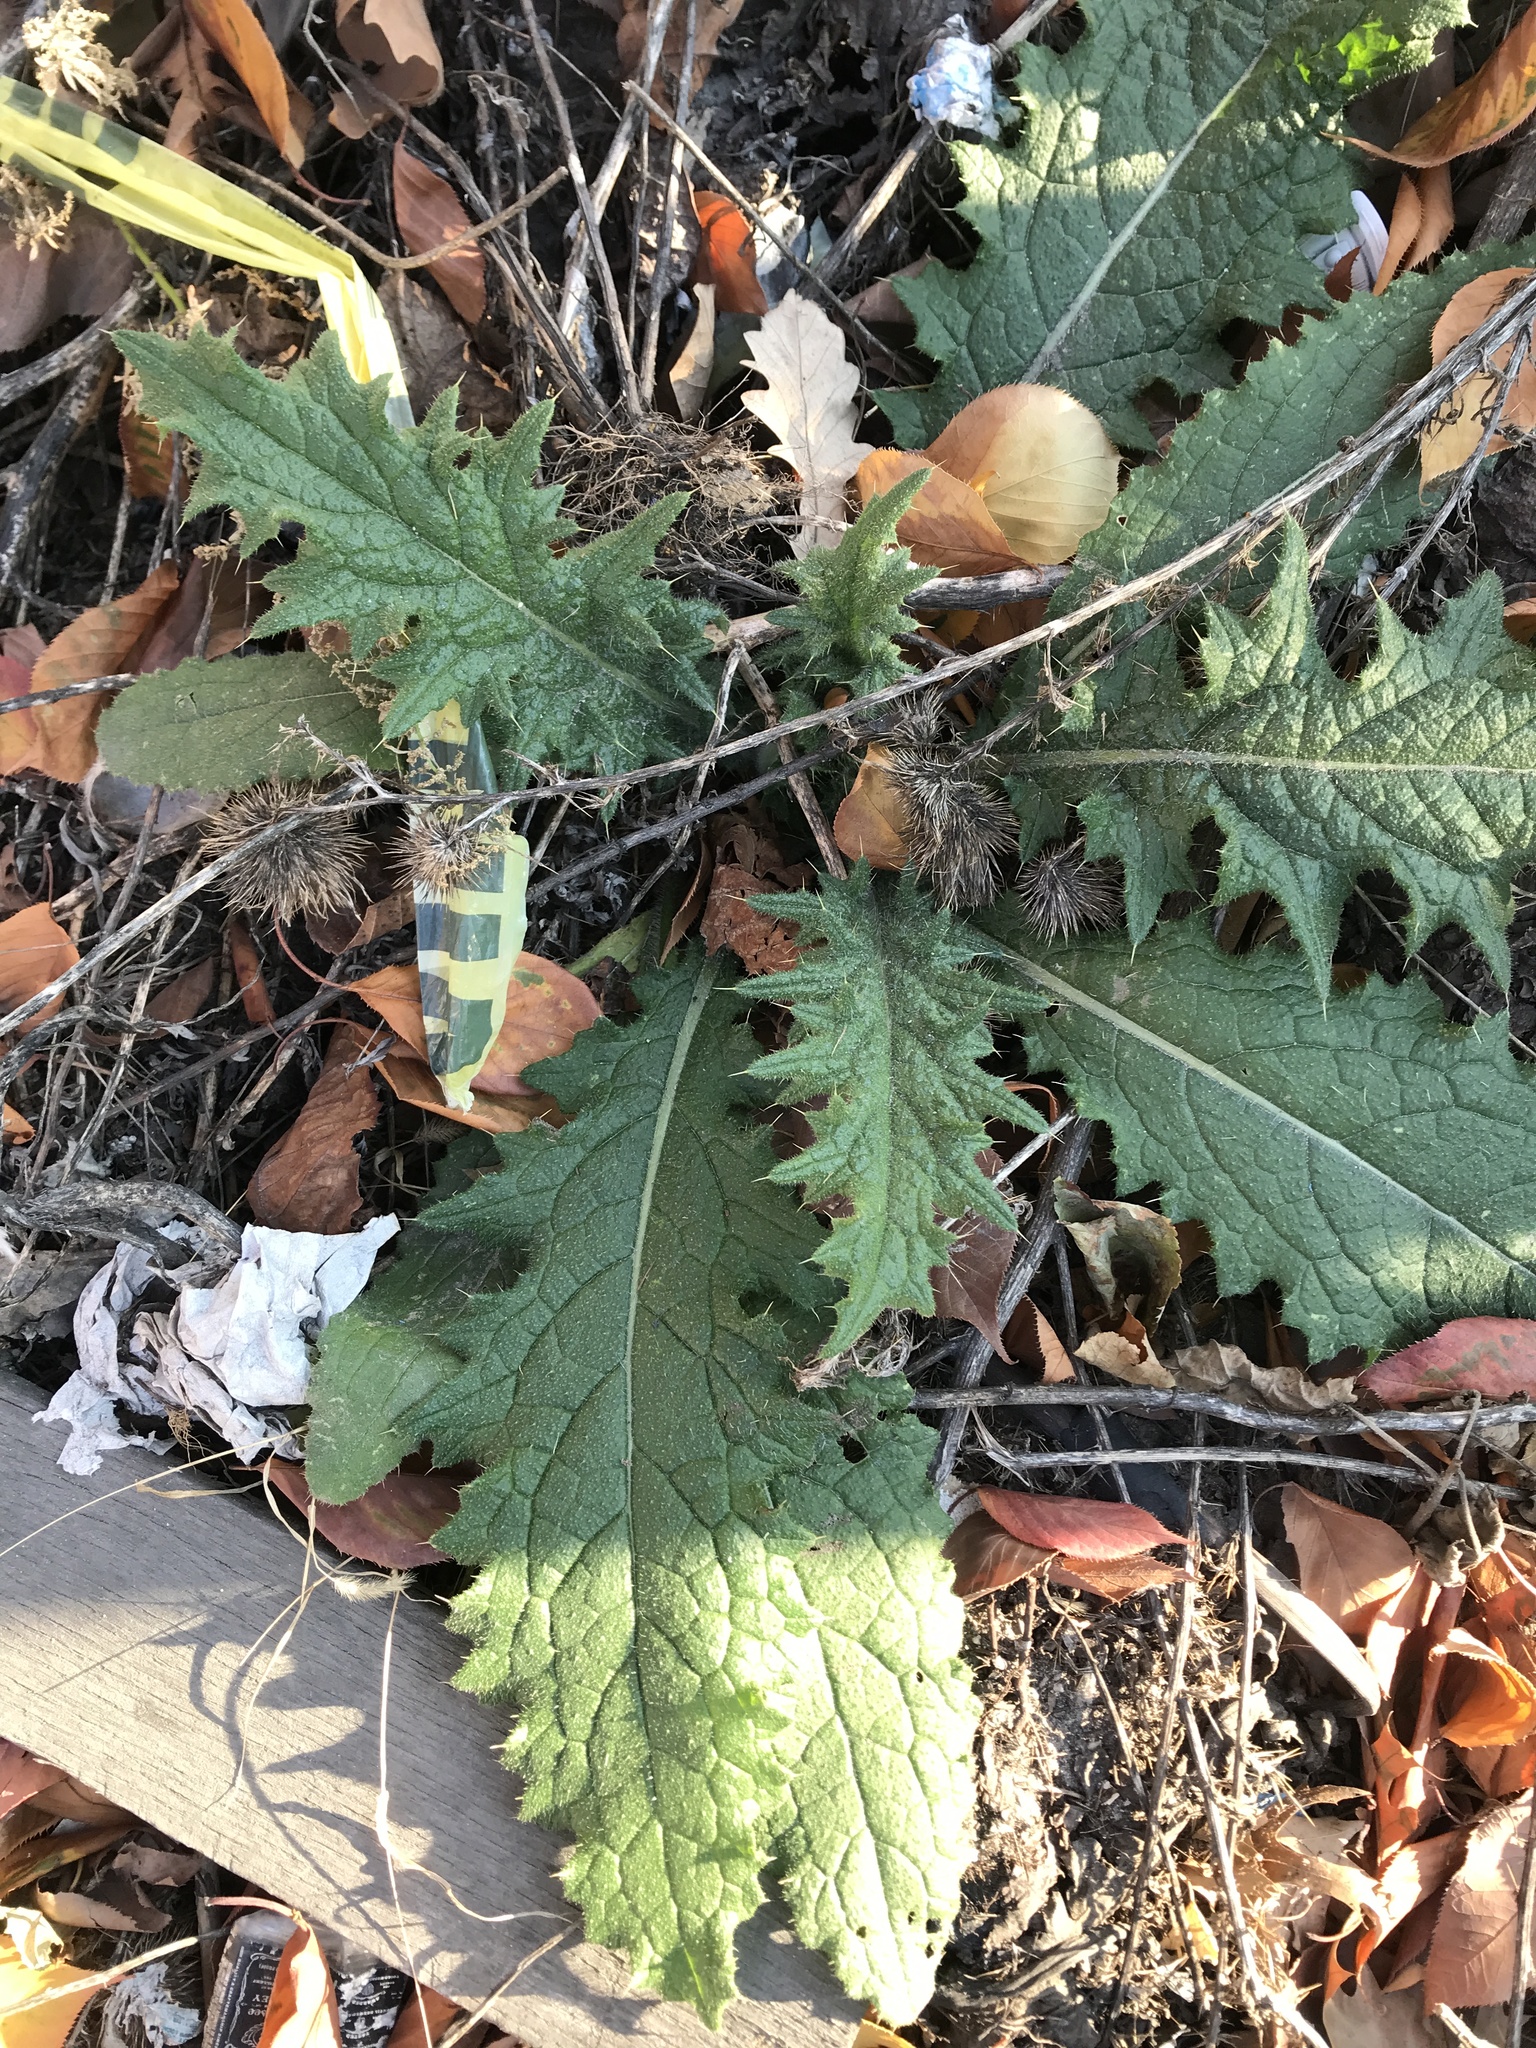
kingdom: Plantae
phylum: Tracheophyta
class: Magnoliopsida
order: Asterales
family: Asteraceae
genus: Cirsium
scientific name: Cirsium vulgare
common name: Bull thistle
